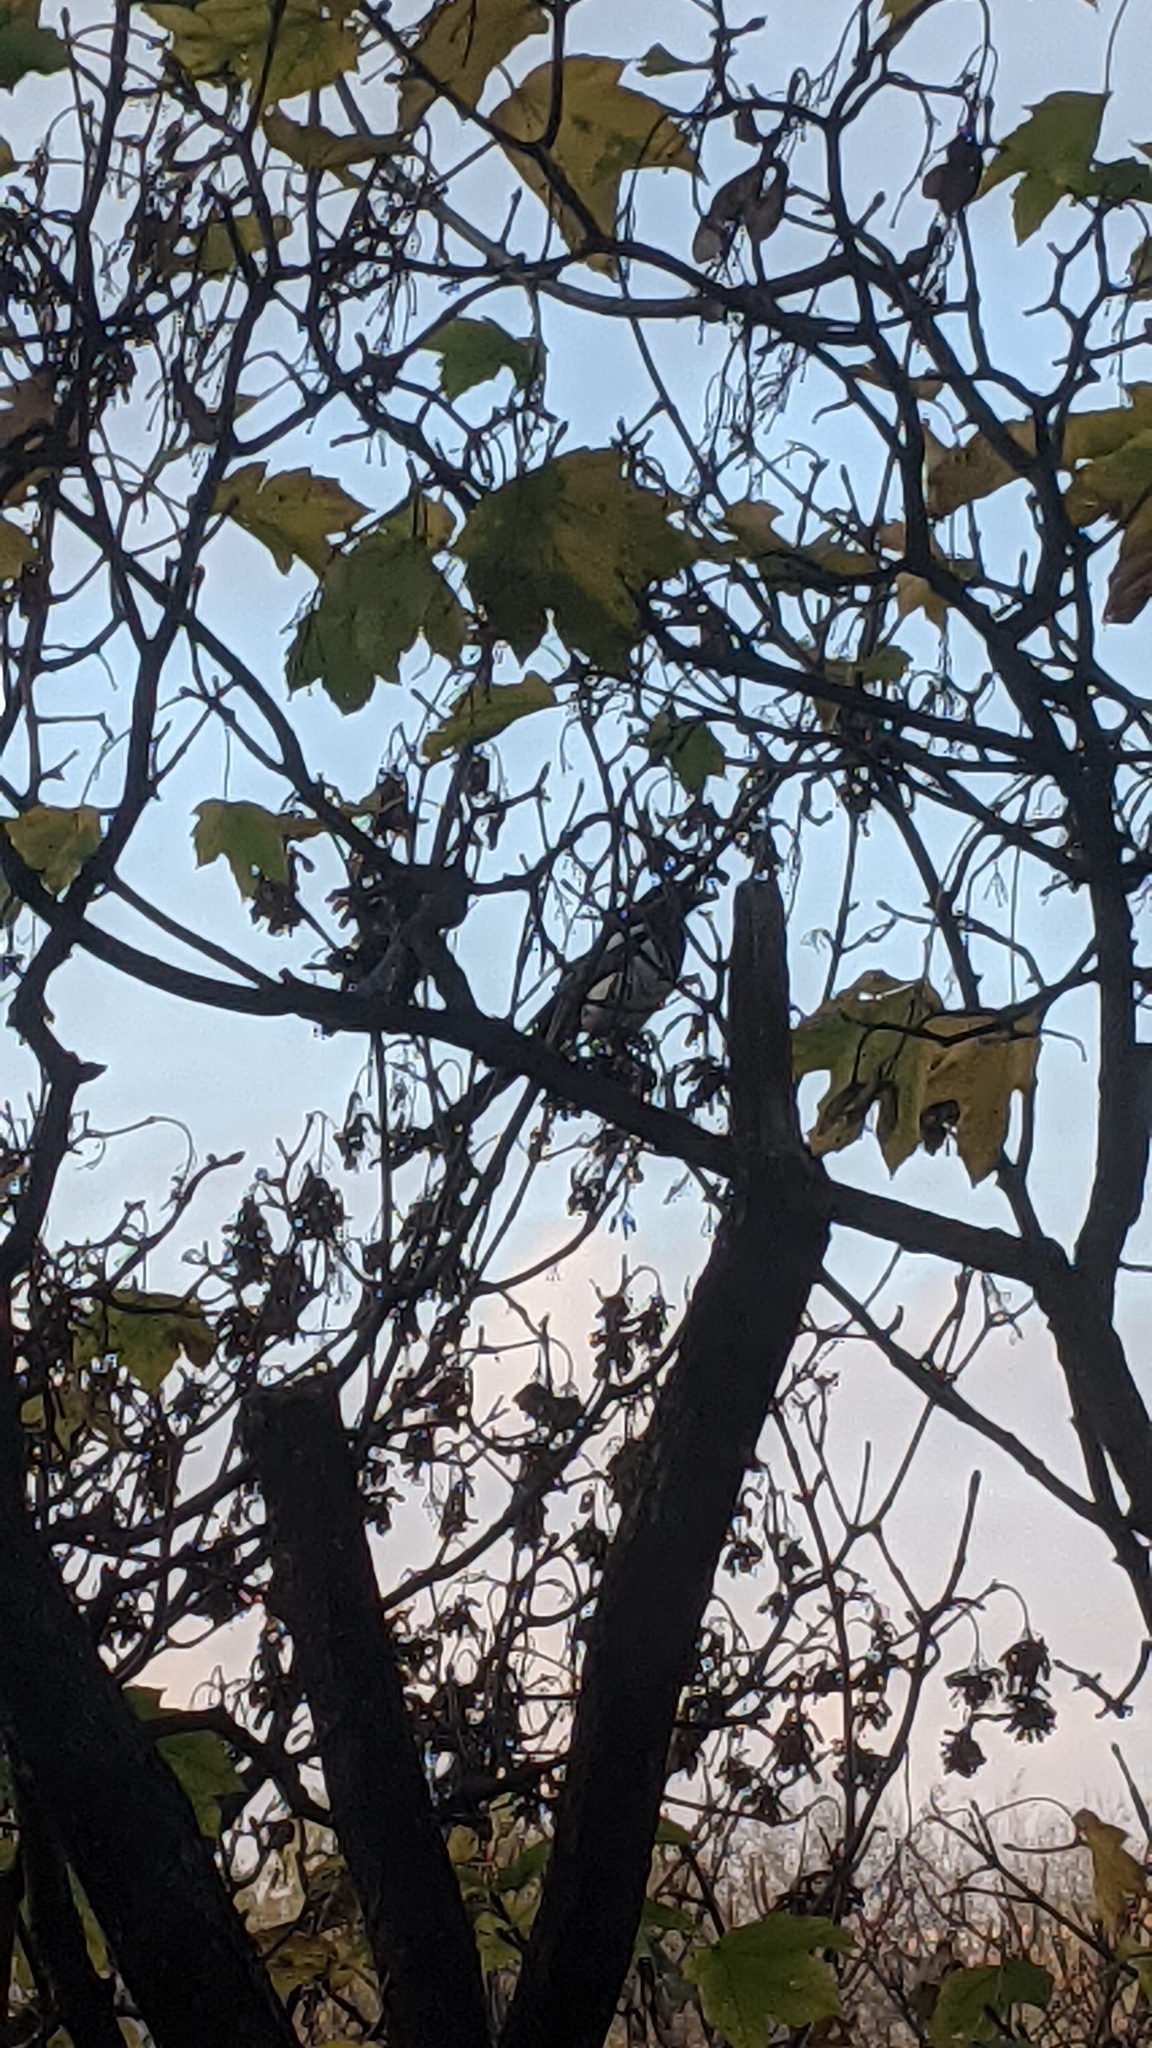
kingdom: Animalia
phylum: Chordata
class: Aves
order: Passeriformes
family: Corvidae
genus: Pica
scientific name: Pica pica
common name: Eurasian magpie
